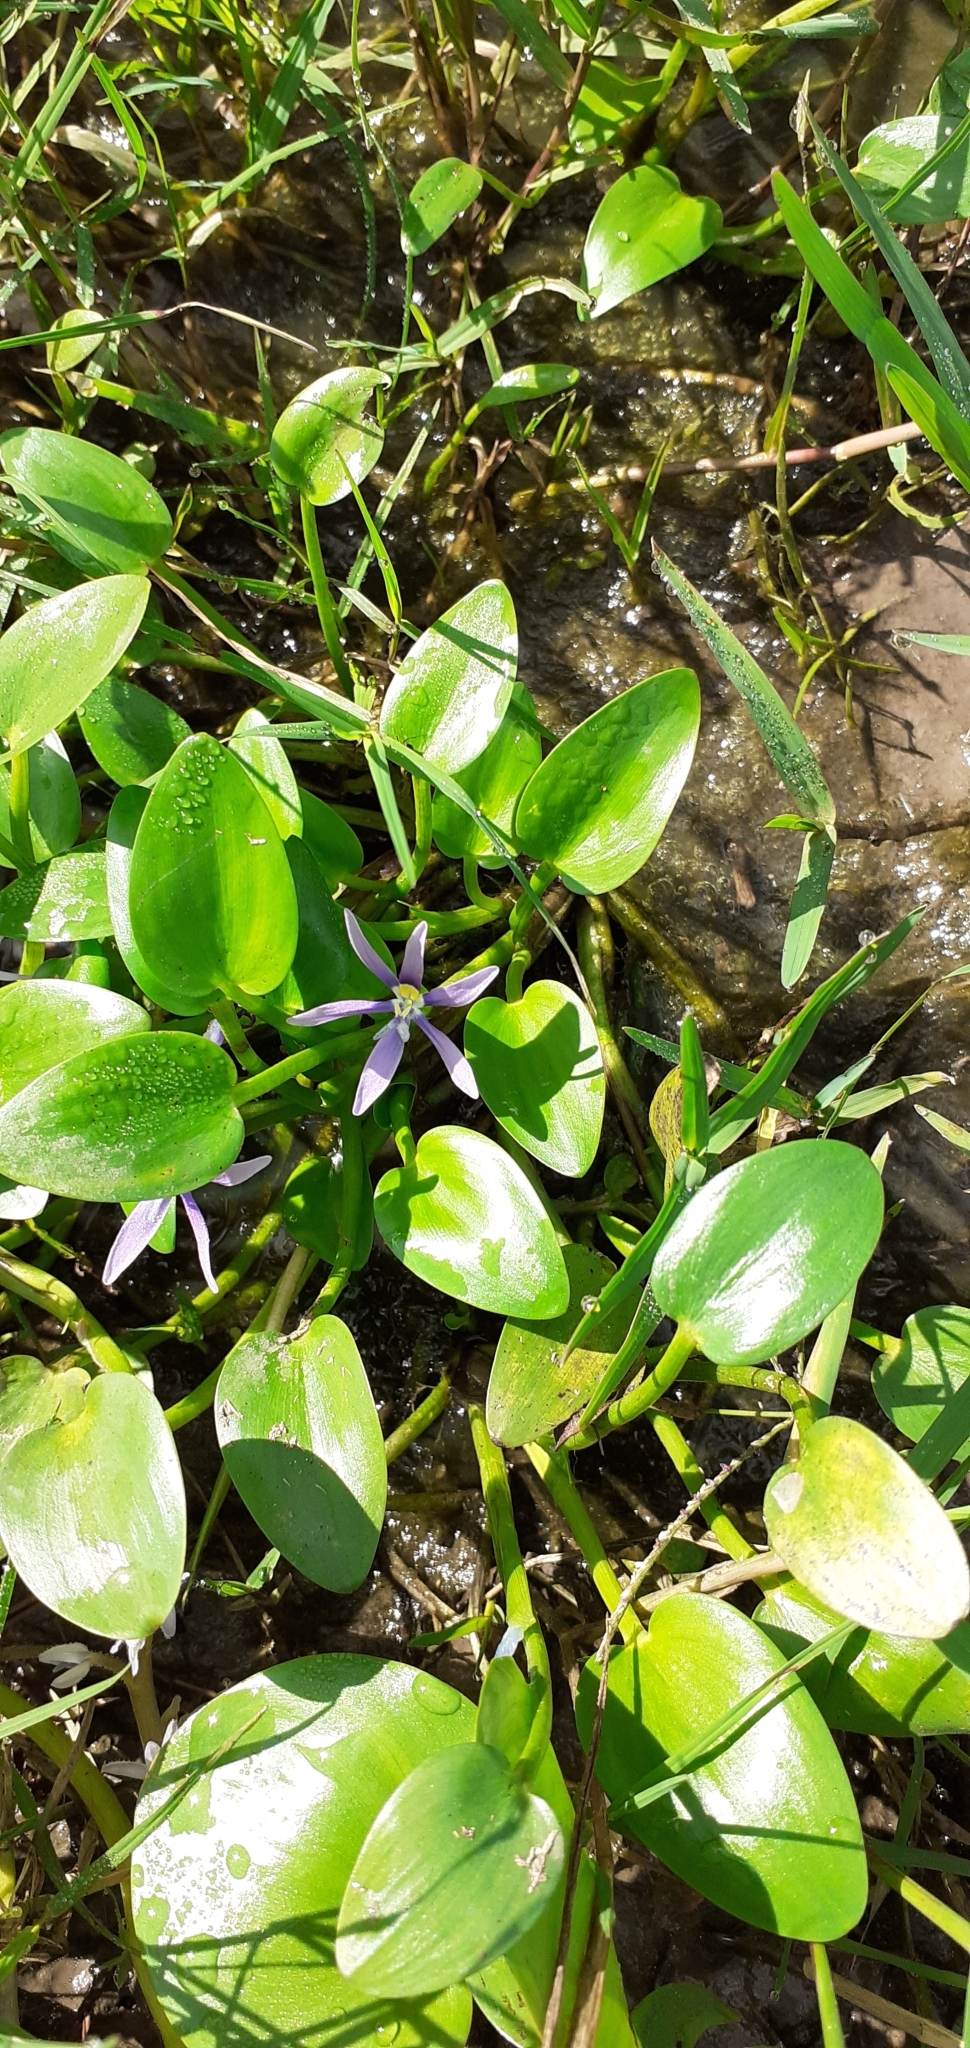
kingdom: Plantae
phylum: Tracheophyta
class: Liliopsida
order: Commelinales
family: Pontederiaceae
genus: Heteranthera
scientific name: Heteranthera limosa
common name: Blue mud-plantain
